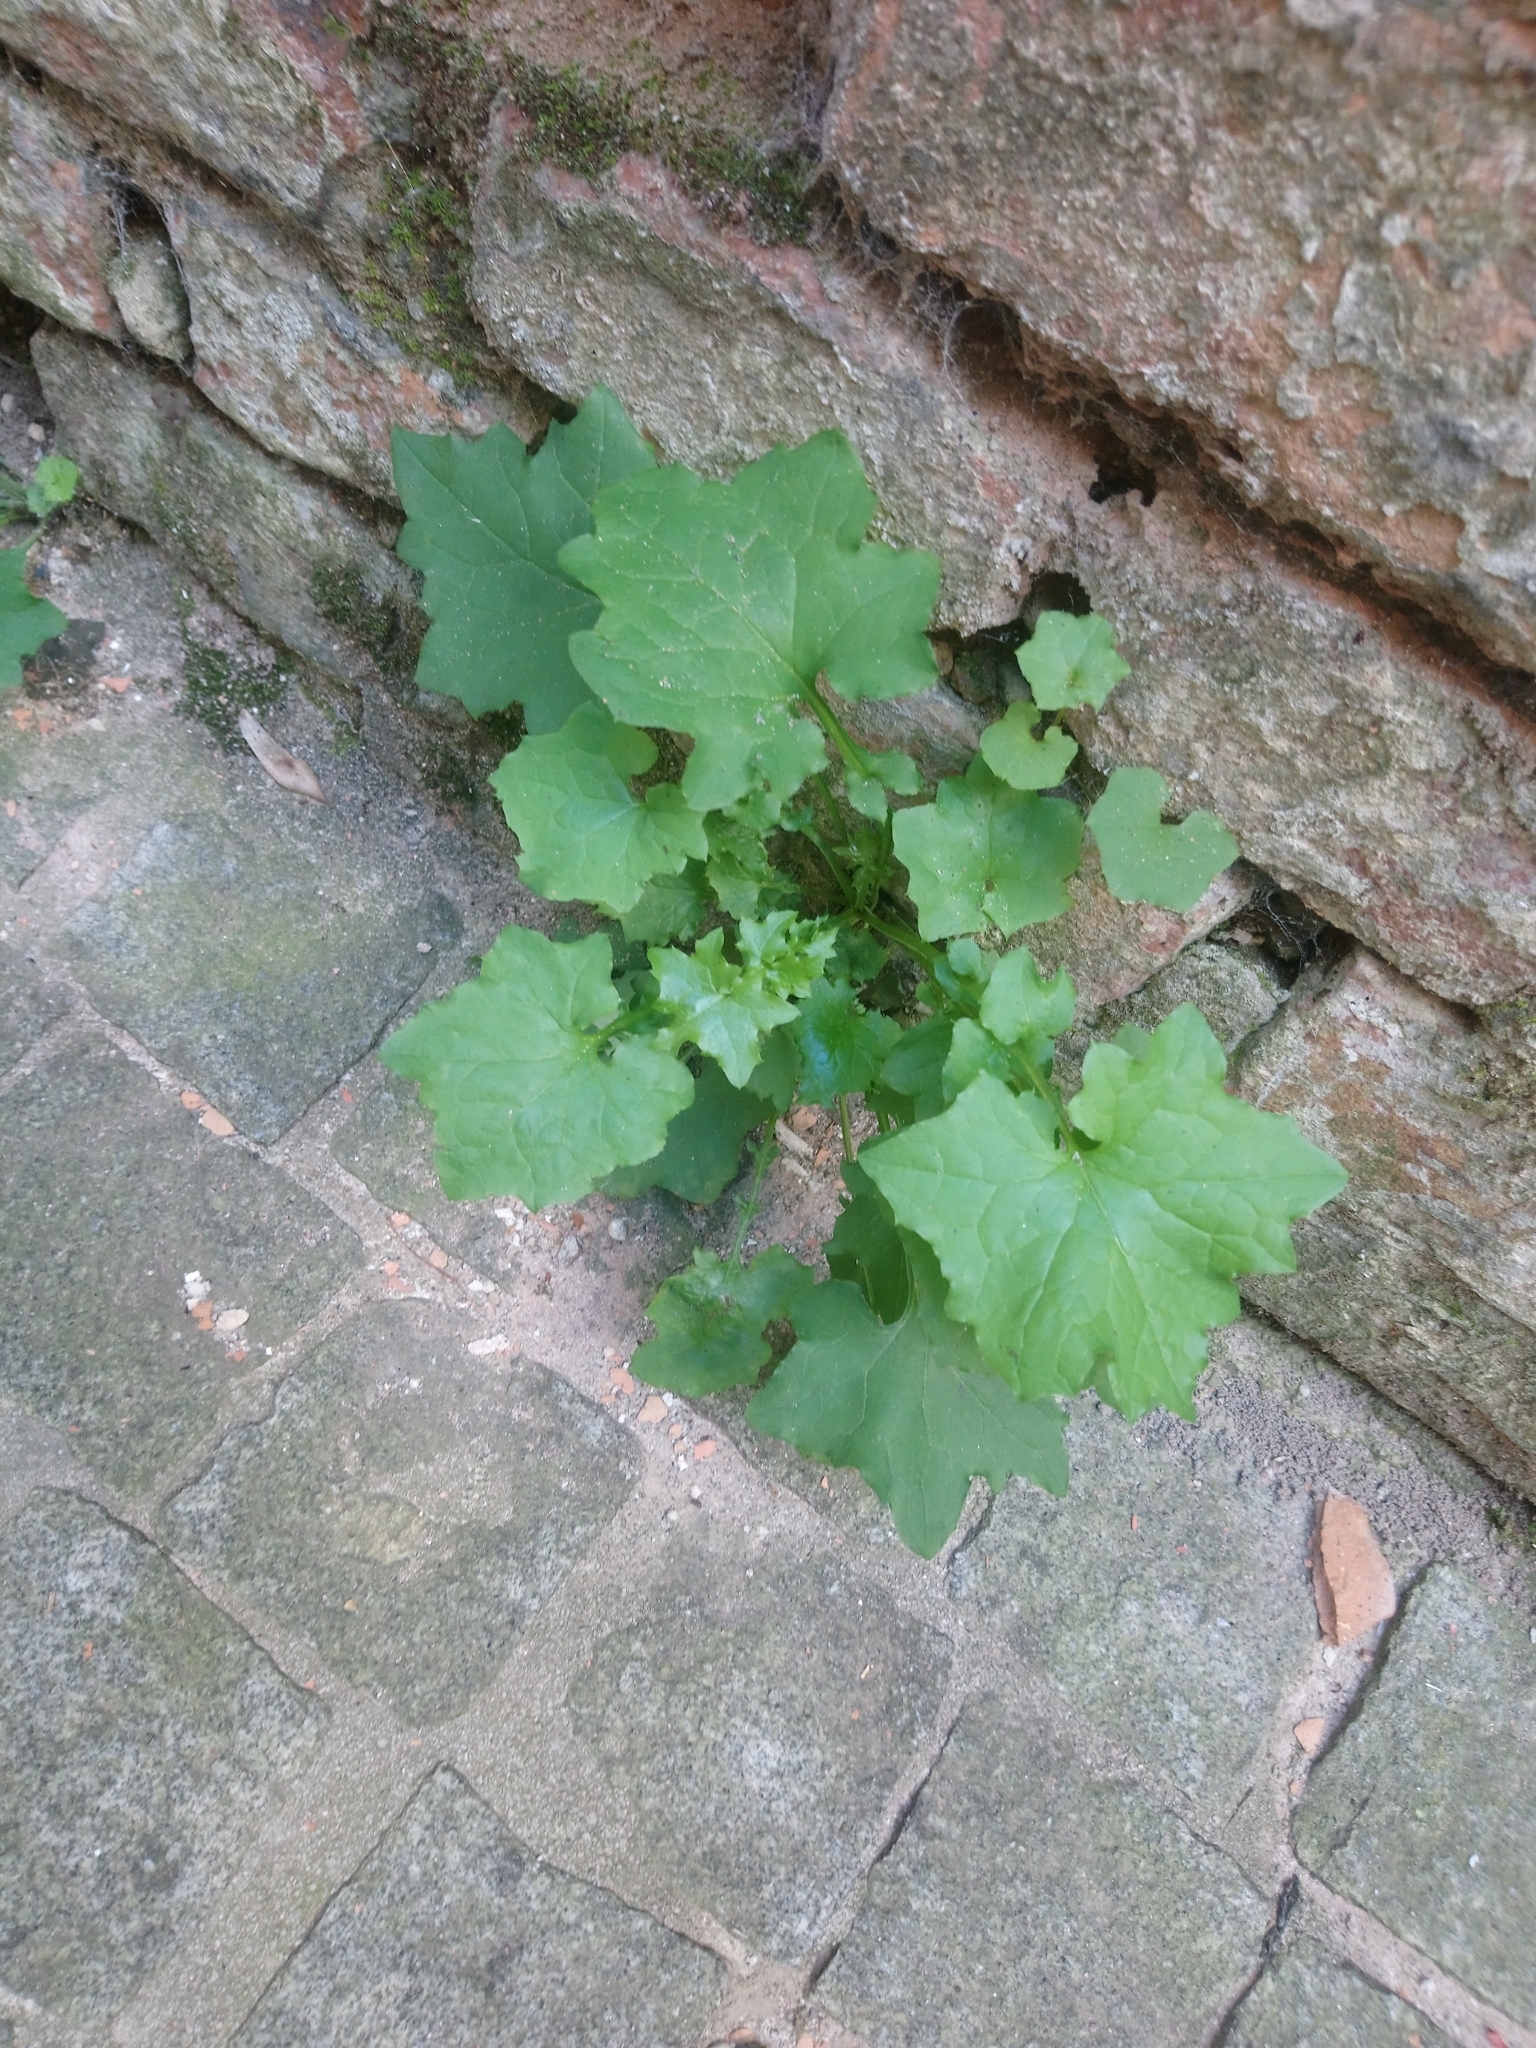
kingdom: Plantae
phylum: Tracheophyta
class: Magnoliopsida
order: Asterales
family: Asteraceae
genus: Mycelis
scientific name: Mycelis muralis
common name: Wall lettuce
